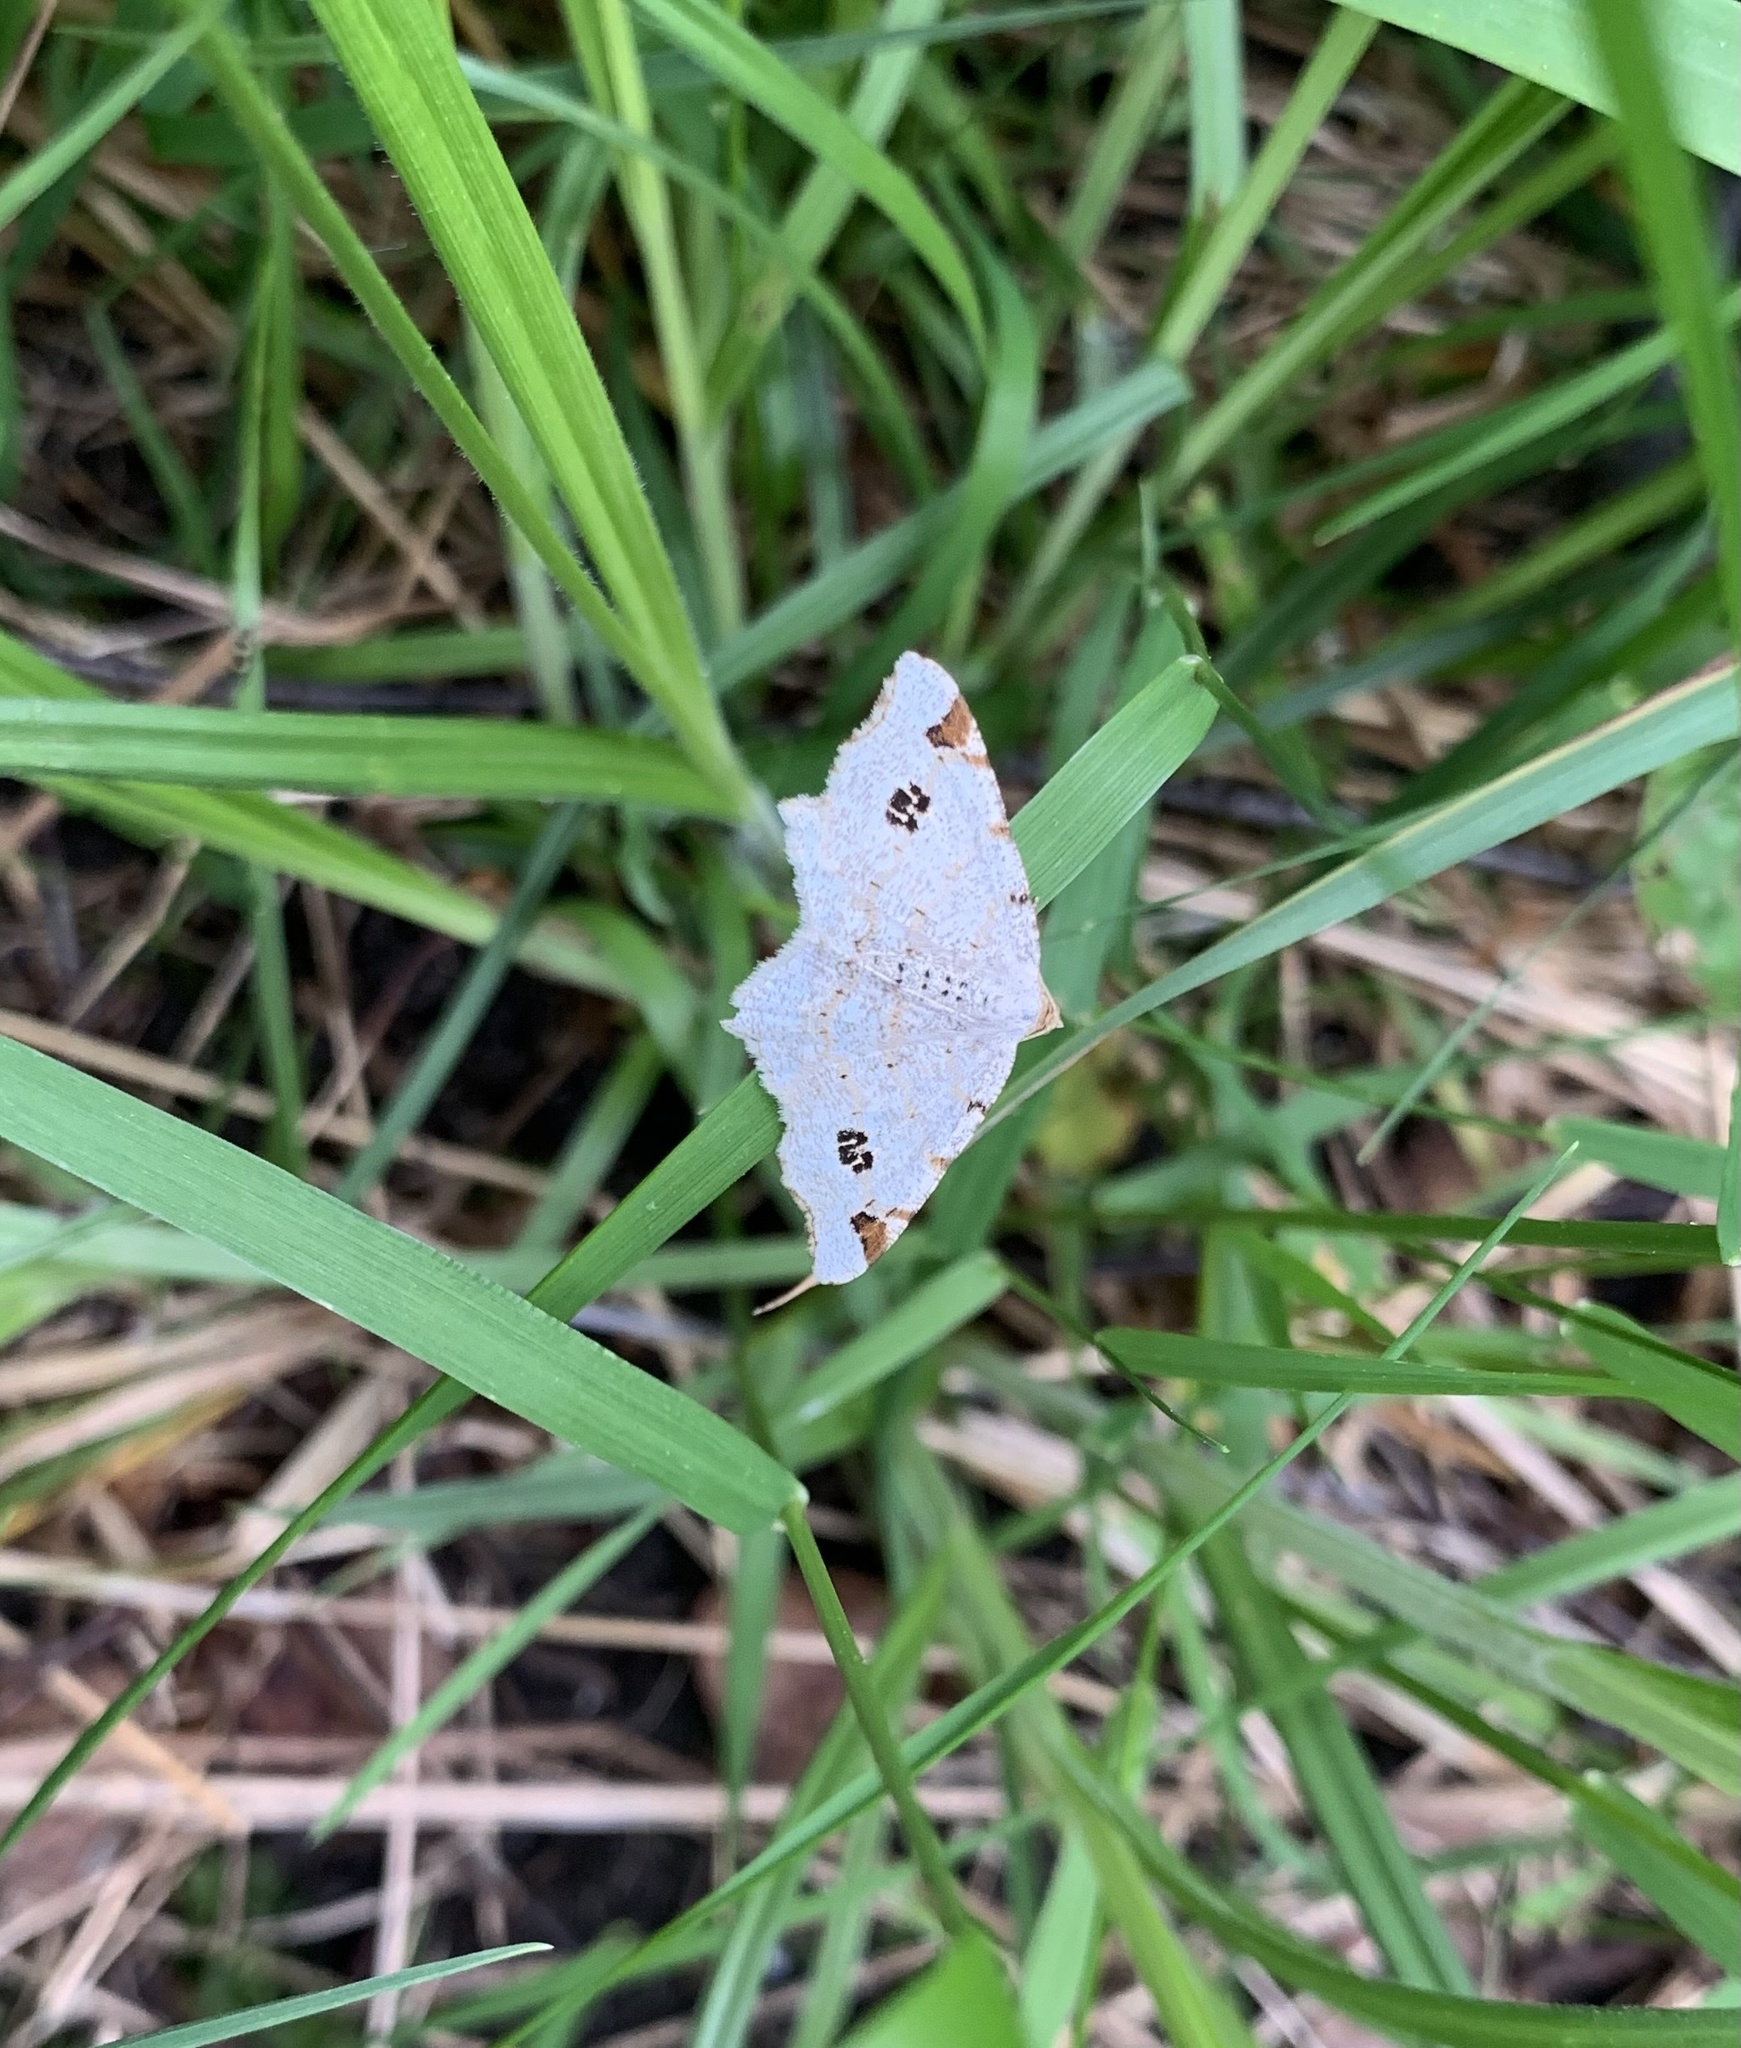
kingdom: Animalia
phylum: Arthropoda
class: Insecta
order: Lepidoptera
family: Geometridae
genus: Macaria
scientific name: Macaria notata
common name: Peacock moth
